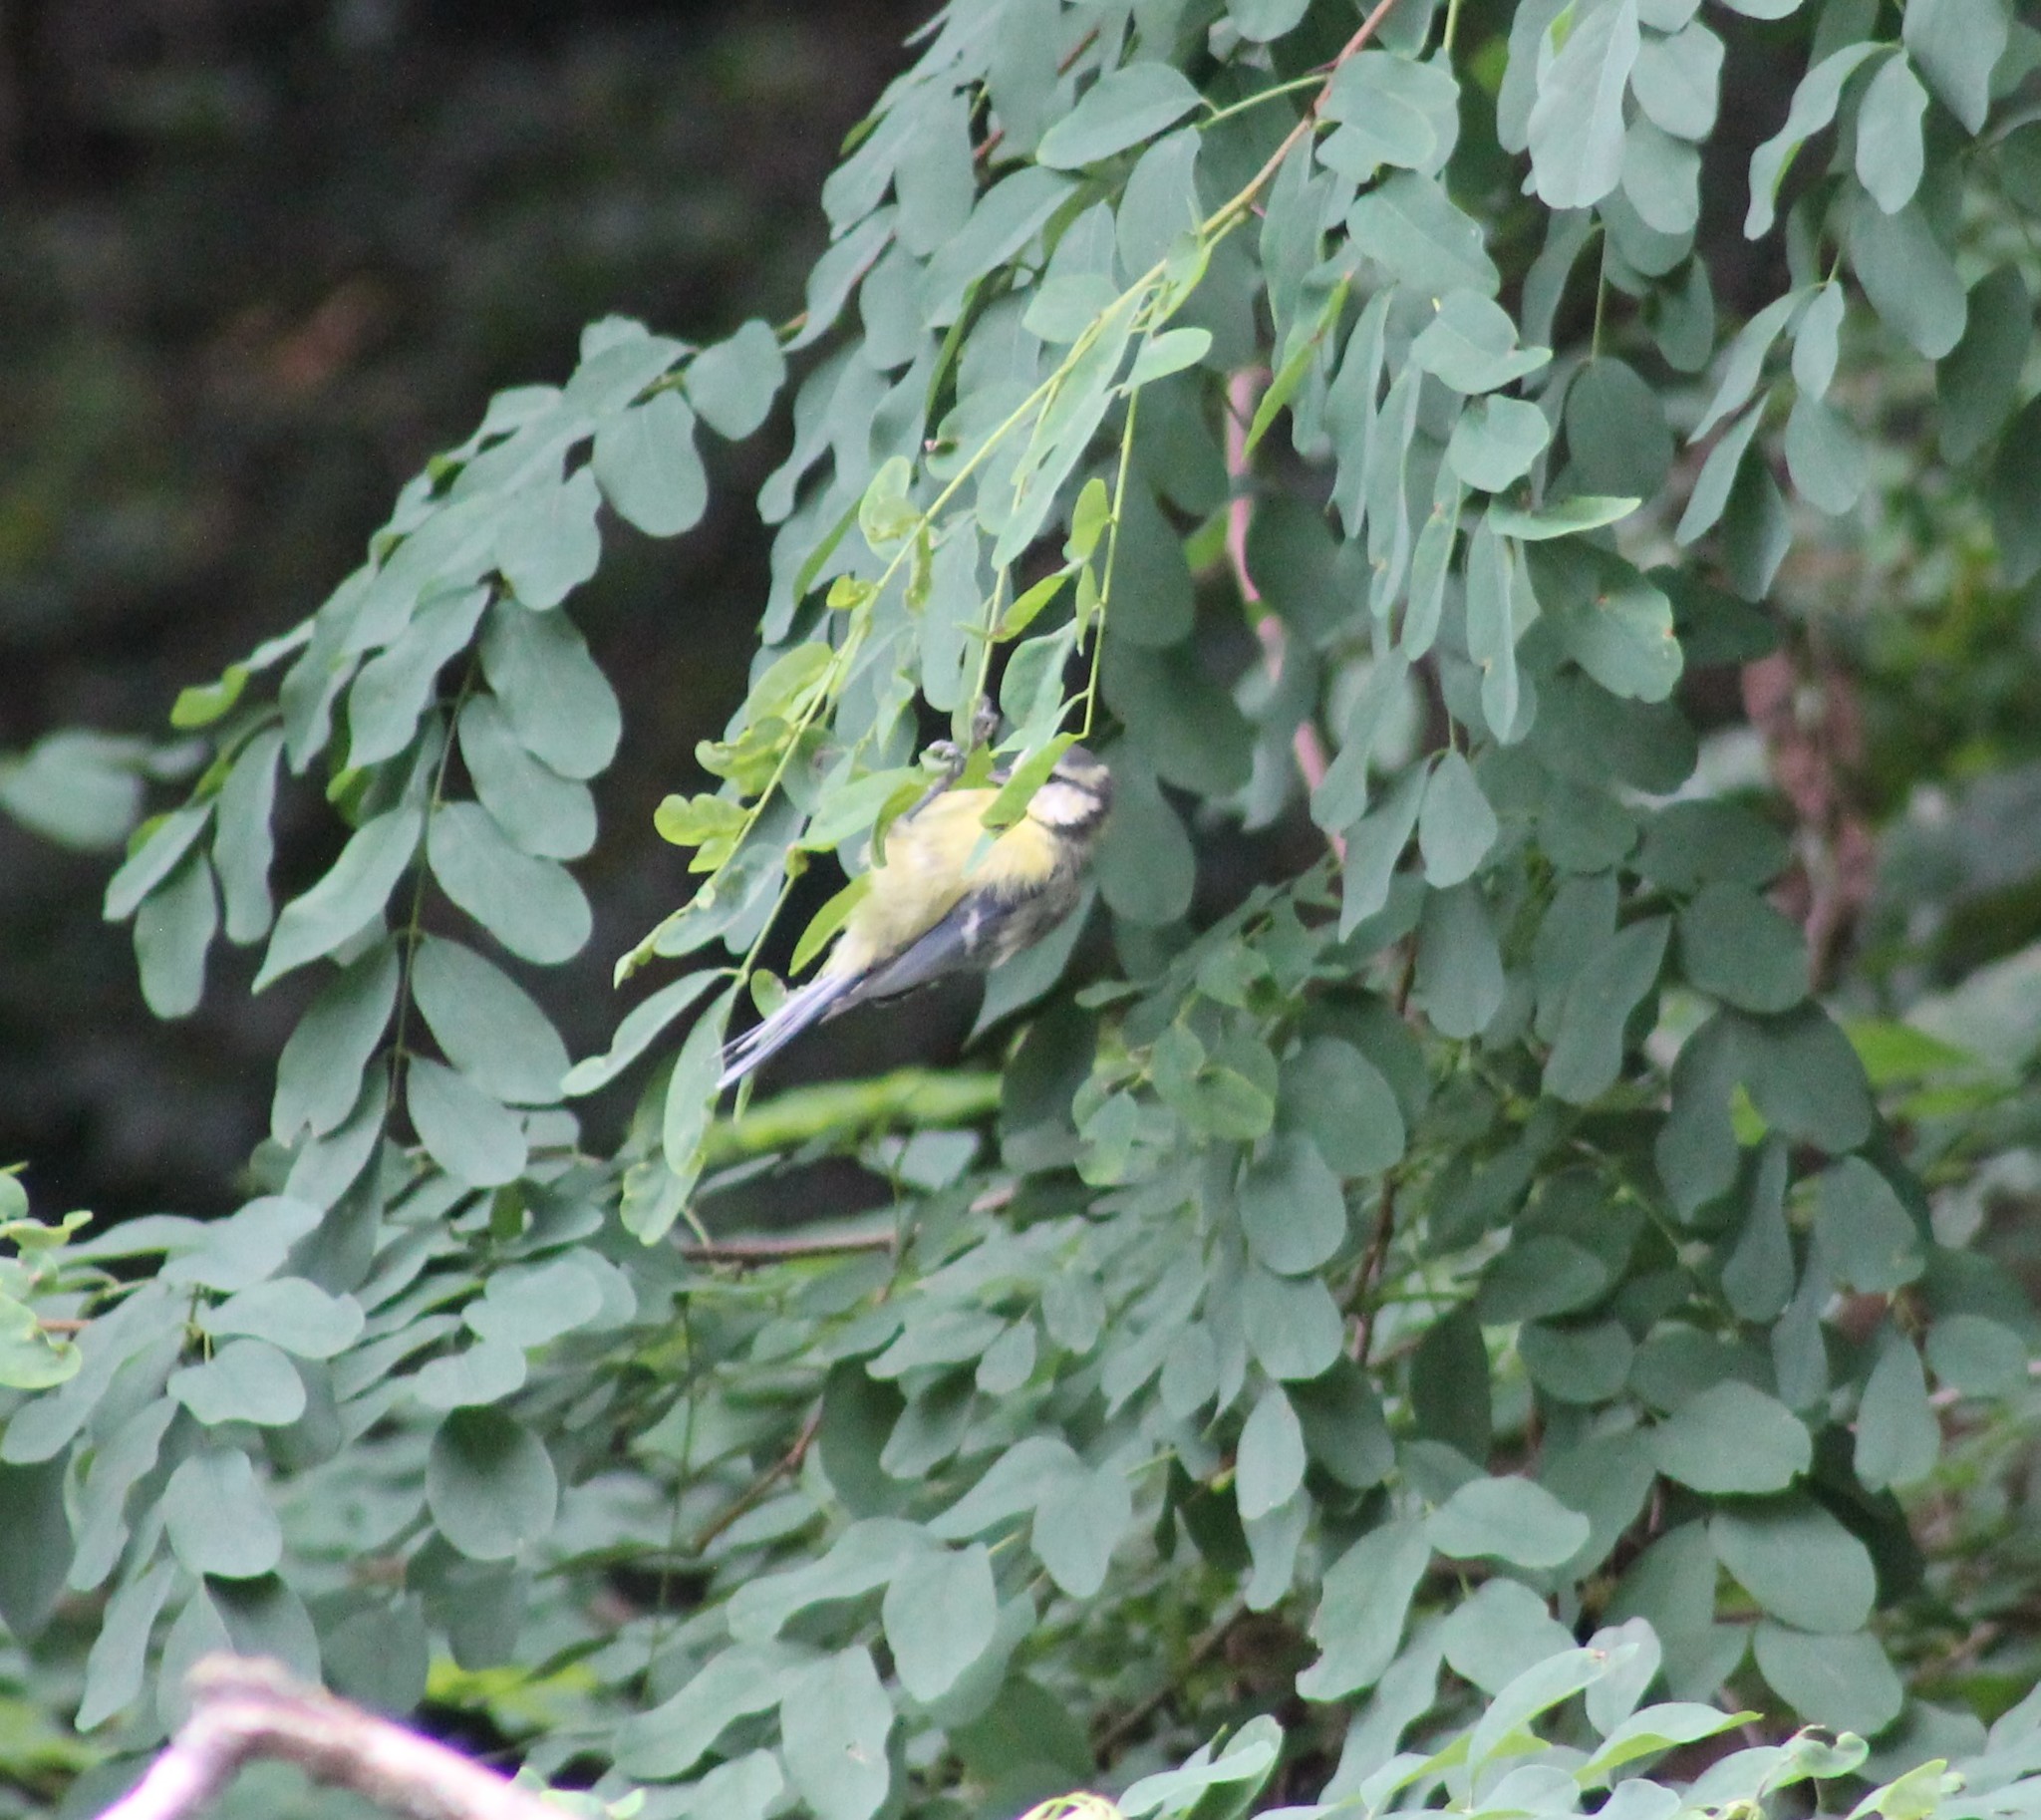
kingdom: Animalia
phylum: Chordata
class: Aves
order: Passeriformes
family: Paridae
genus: Cyanistes
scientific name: Cyanistes caeruleus
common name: Eurasian blue tit
